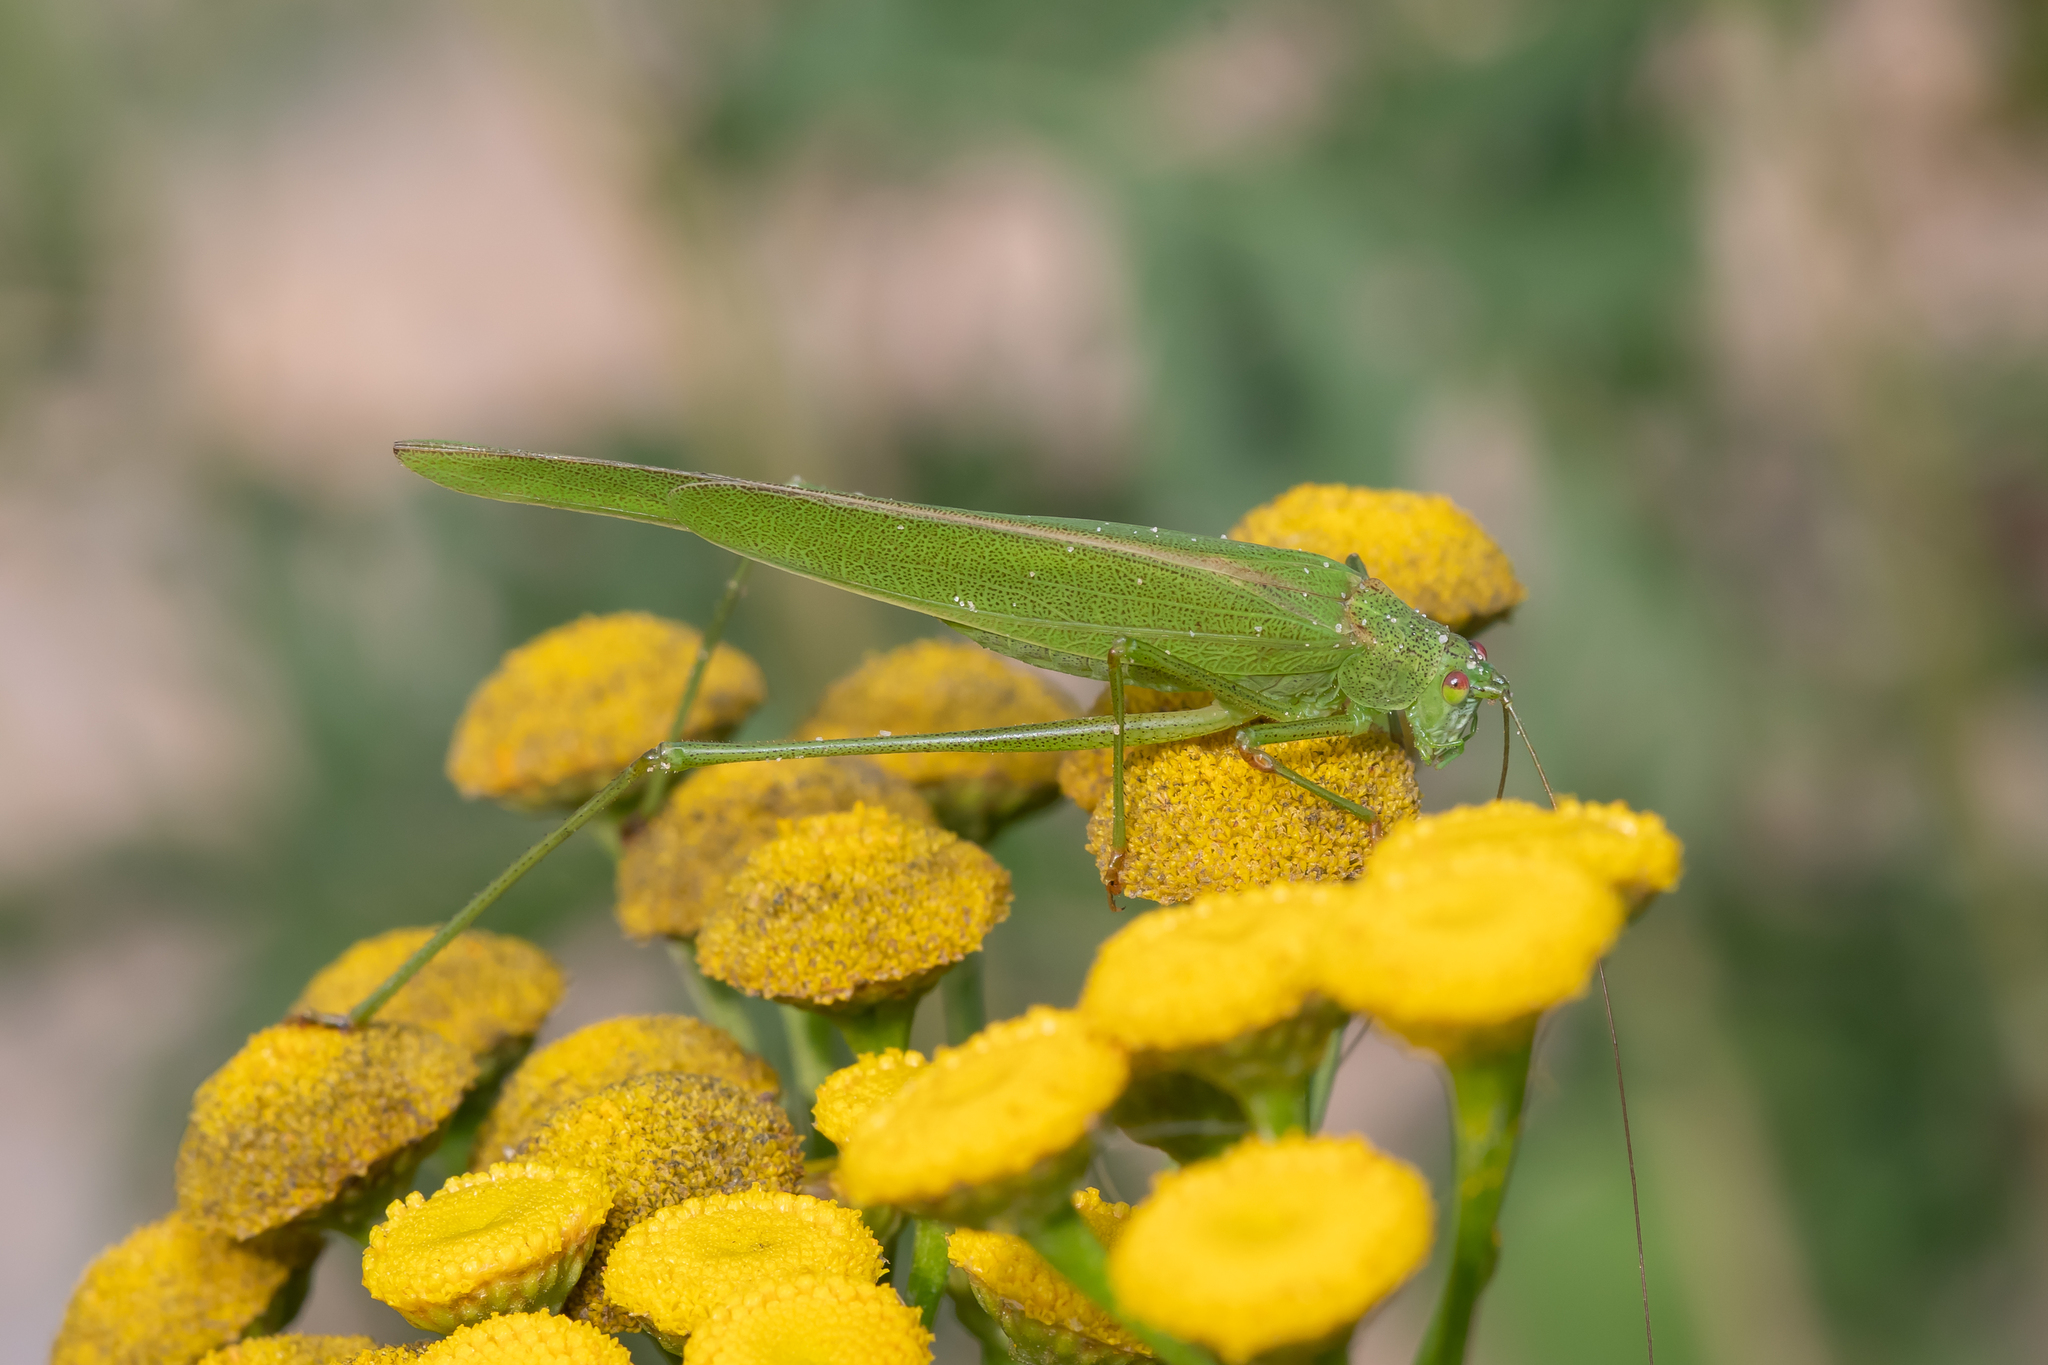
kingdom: Animalia
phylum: Arthropoda
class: Insecta
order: Orthoptera
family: Tettigoniidae
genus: Phaneroptera
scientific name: Phaneroptera falcata
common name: Sickle-bearing bush-cricket
